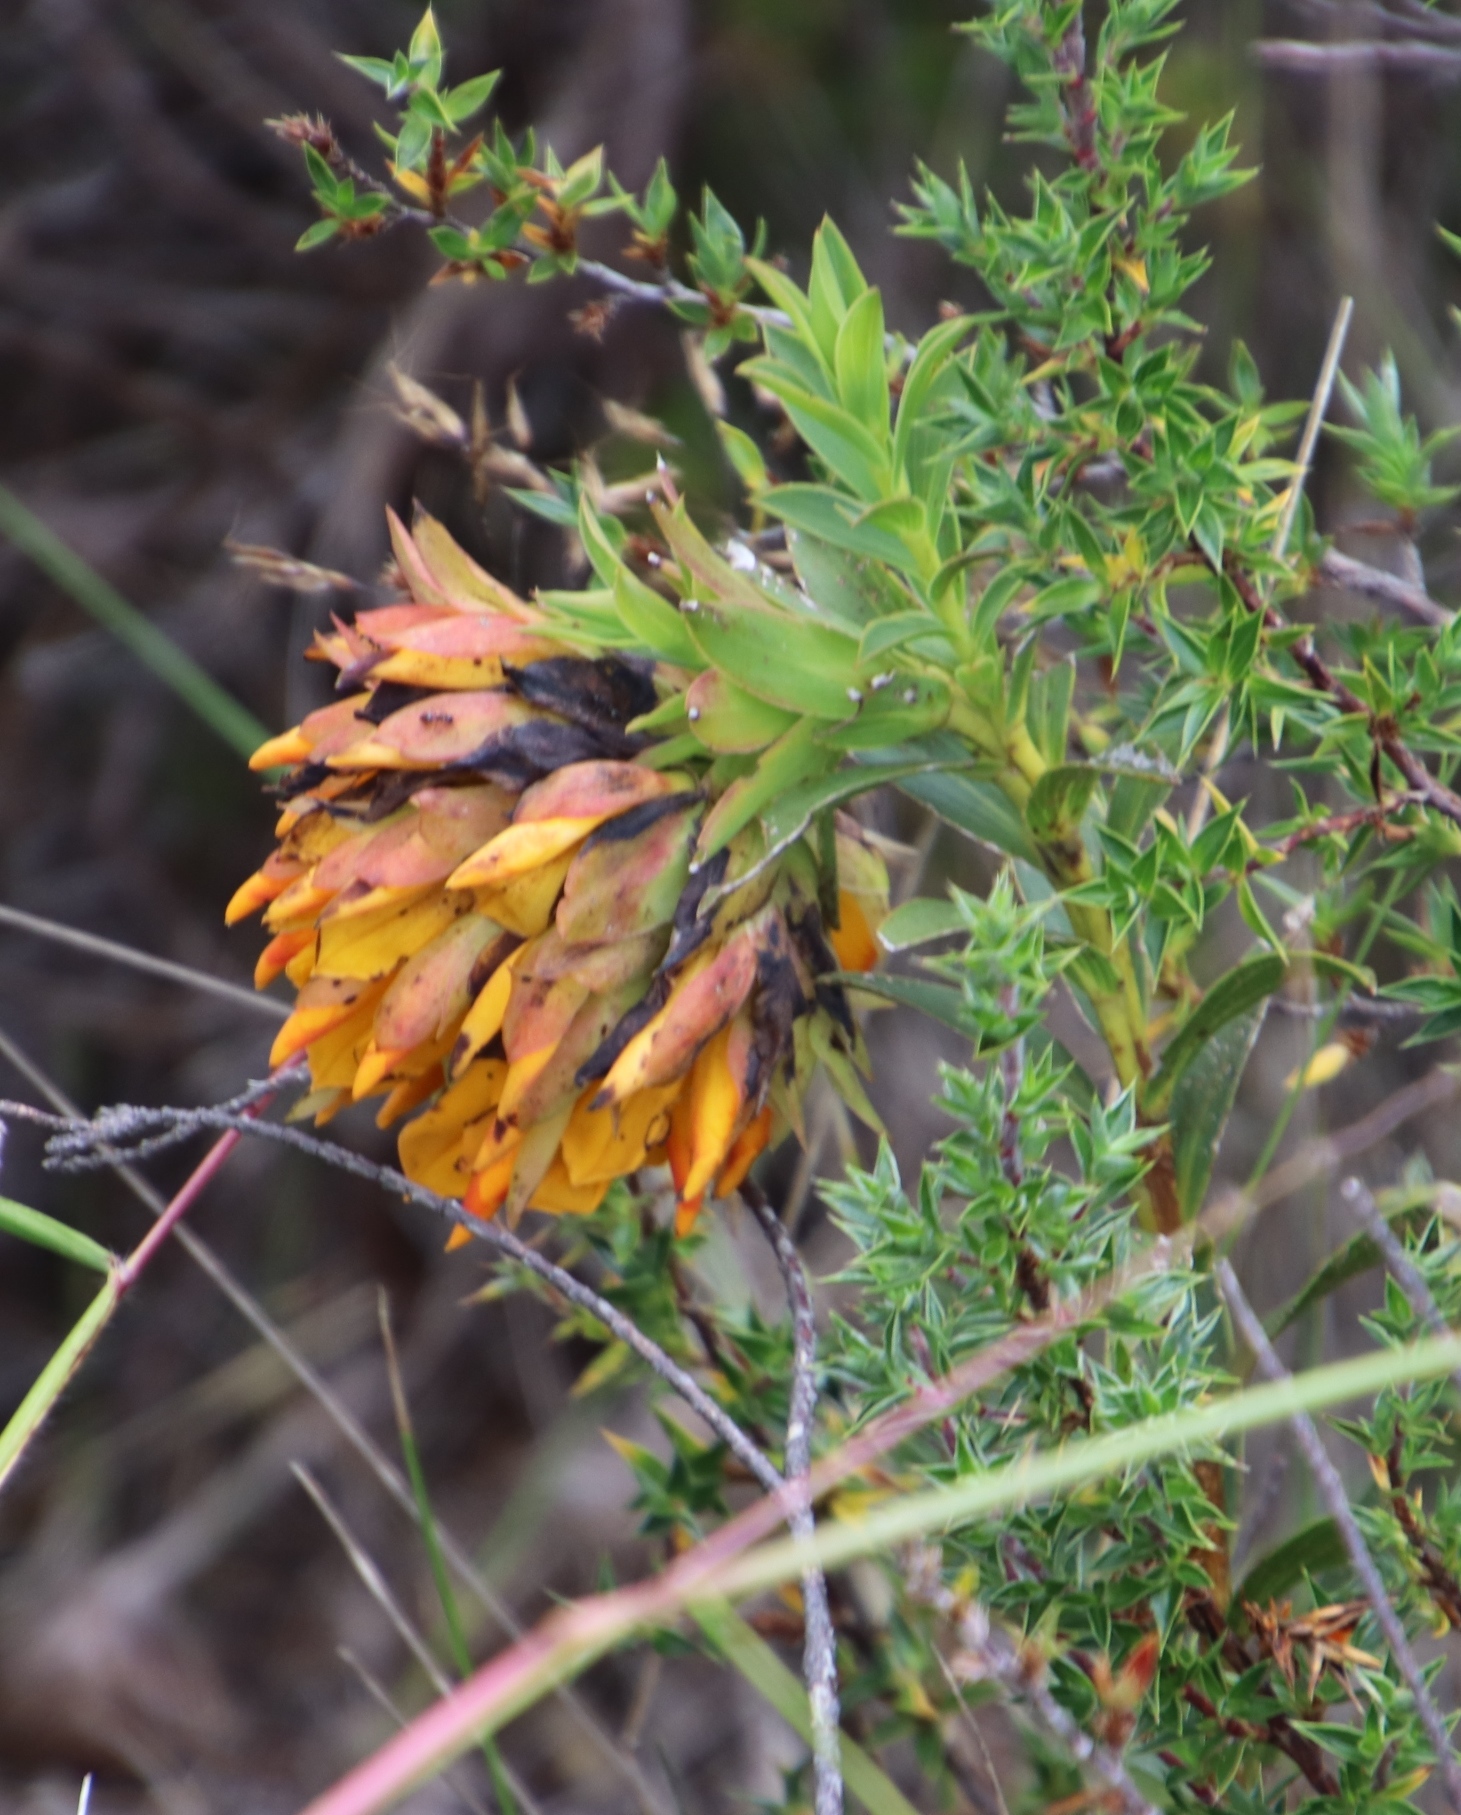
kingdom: Plantae
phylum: Tracheophyta
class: Magnoliopsida
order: Fabales
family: Fabaceae
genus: Liparia
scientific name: Liparia splendens
